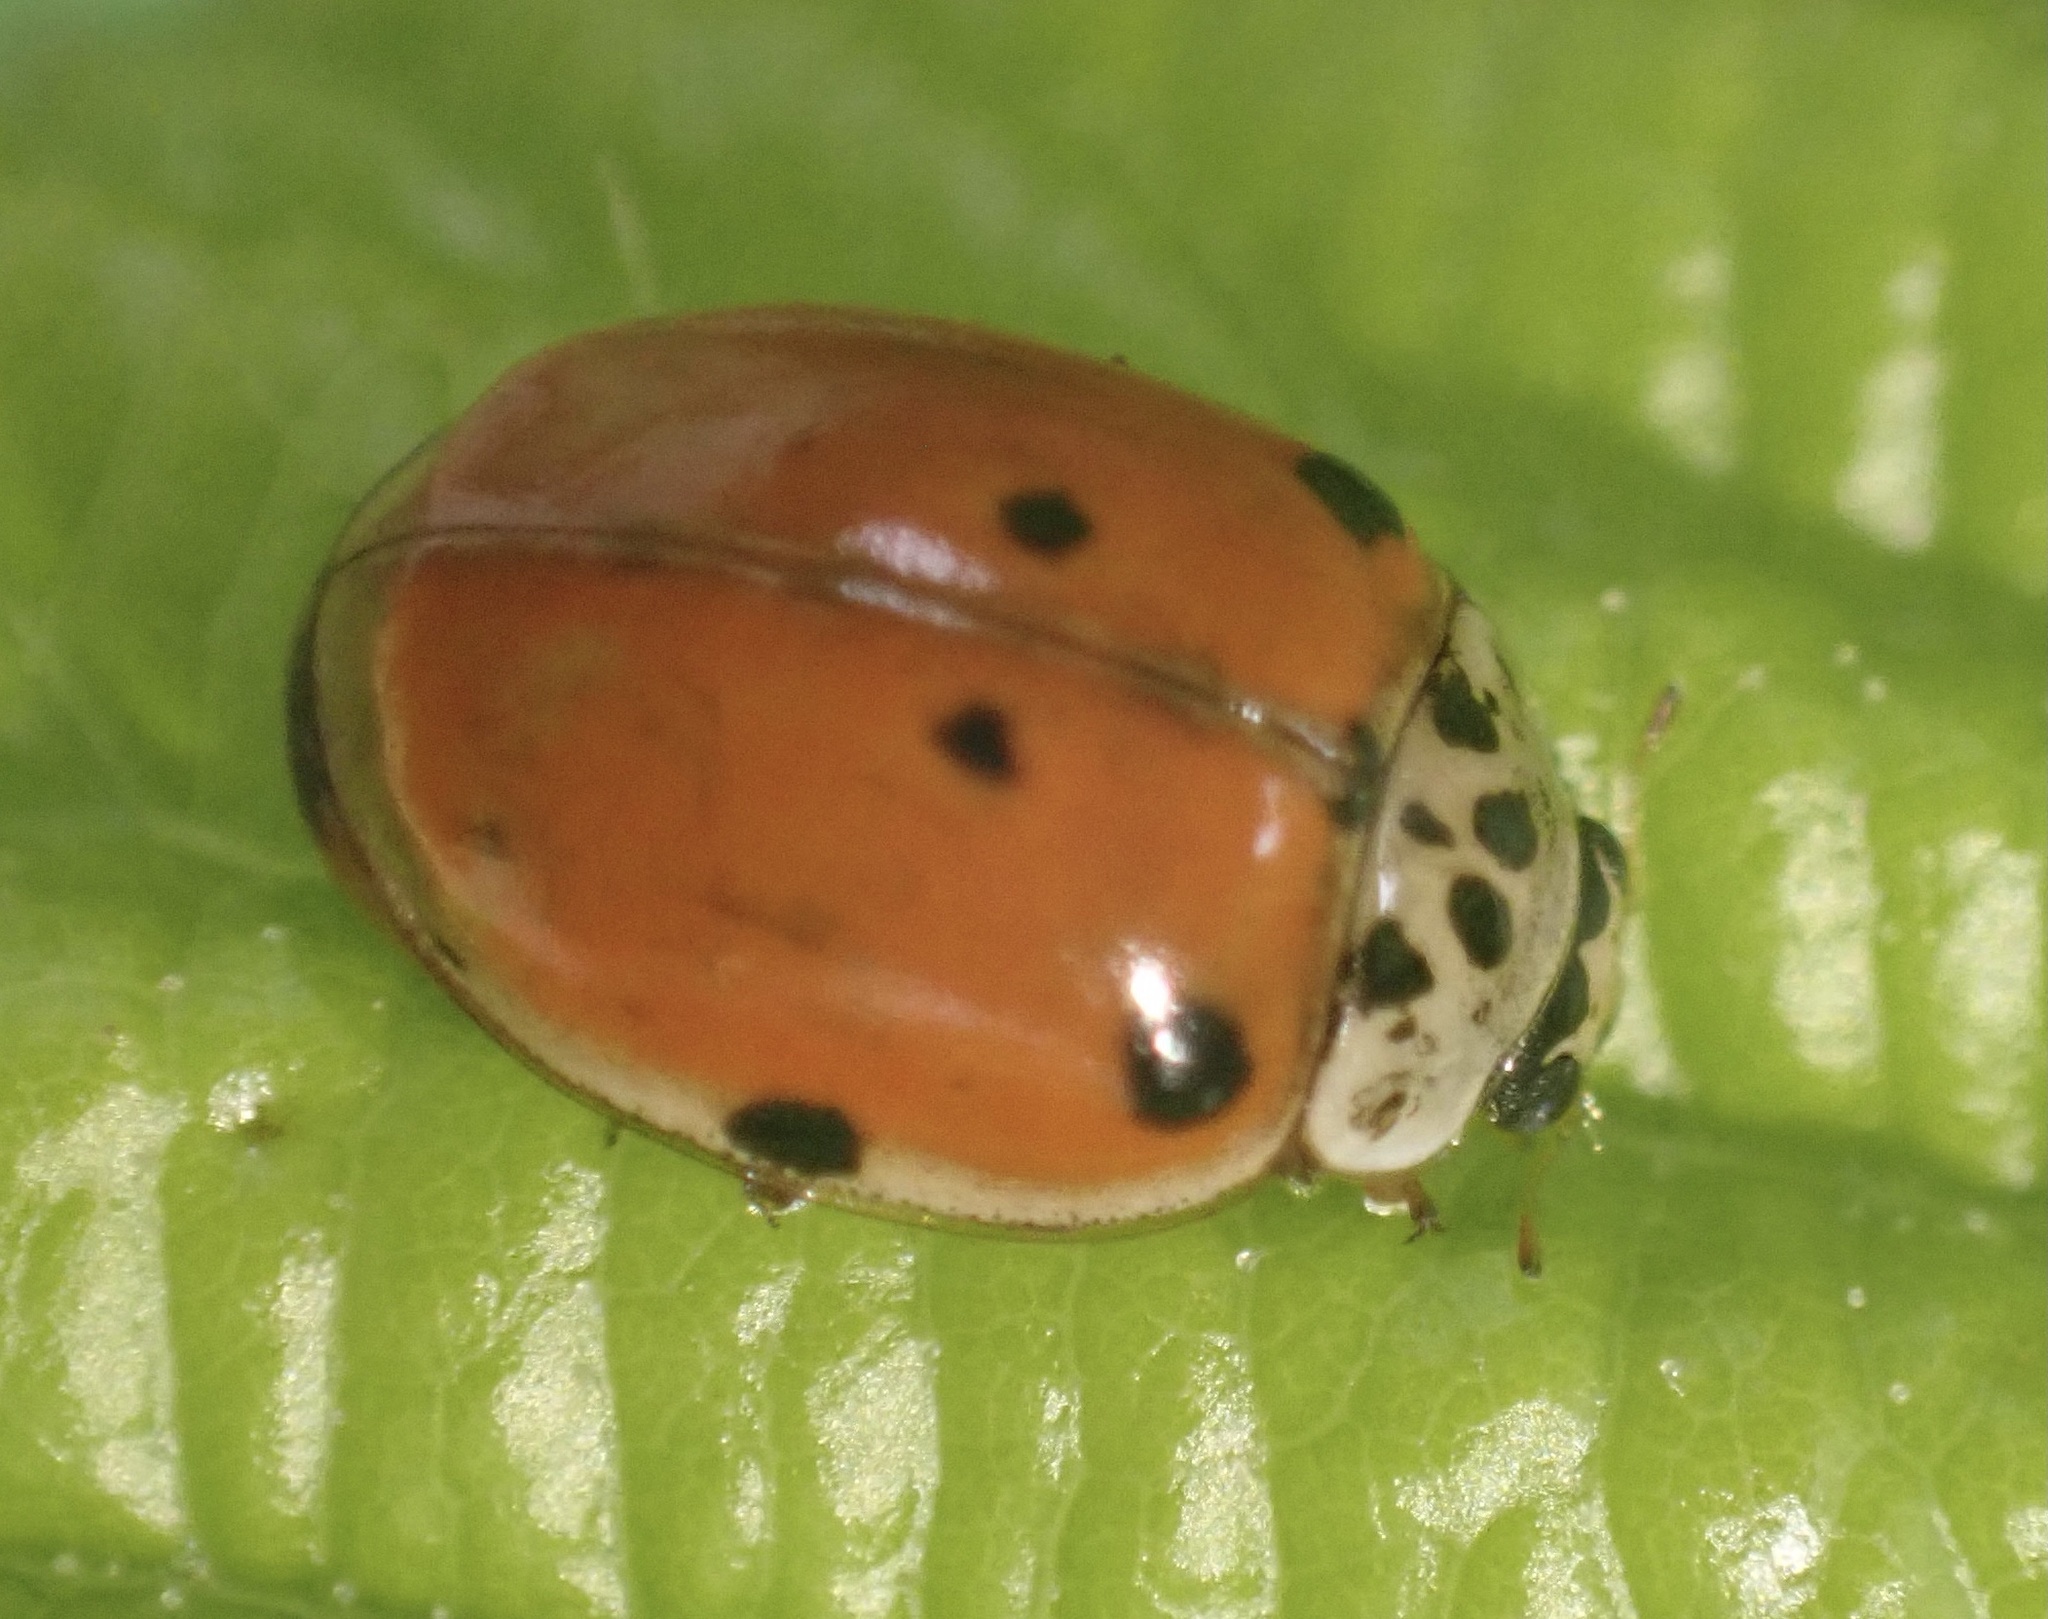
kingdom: Animalia
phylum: Arthropoda
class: Insecta
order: Coleoptera
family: Coccinellidae
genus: Adalia
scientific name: Adalia decempunctata
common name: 10-spot ladybird
